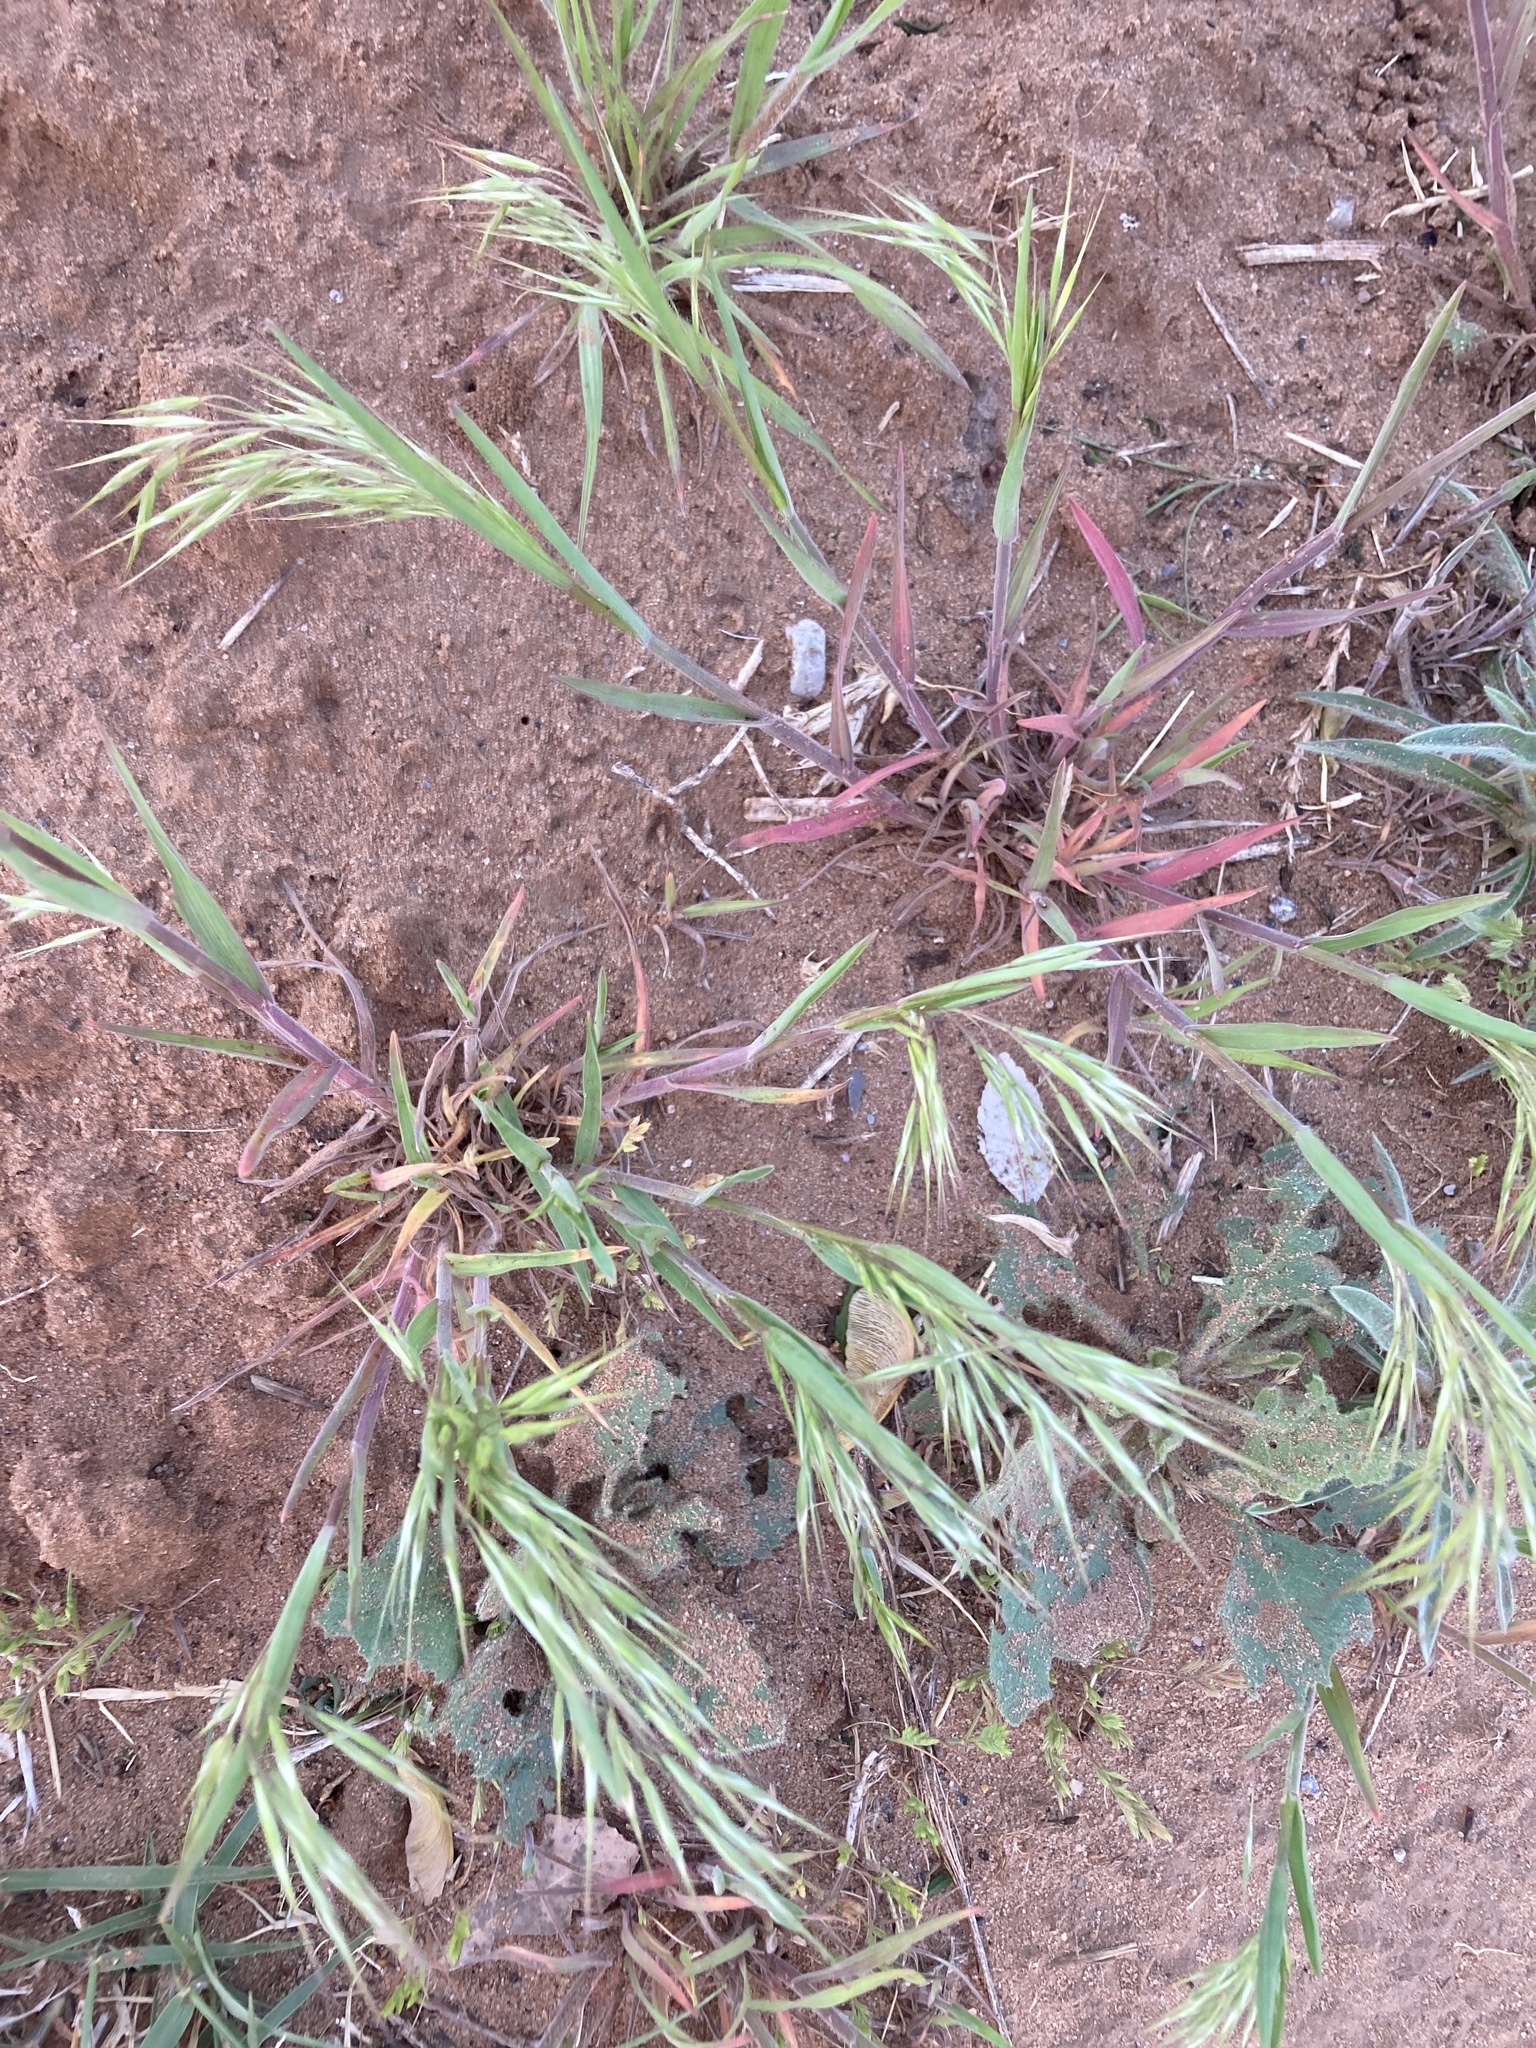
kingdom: Plantae
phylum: Tracheophyta
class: Liliopsida
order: Poales
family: Poaceae
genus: Bromus
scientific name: Bromus tectorum
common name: Cheatgrass
